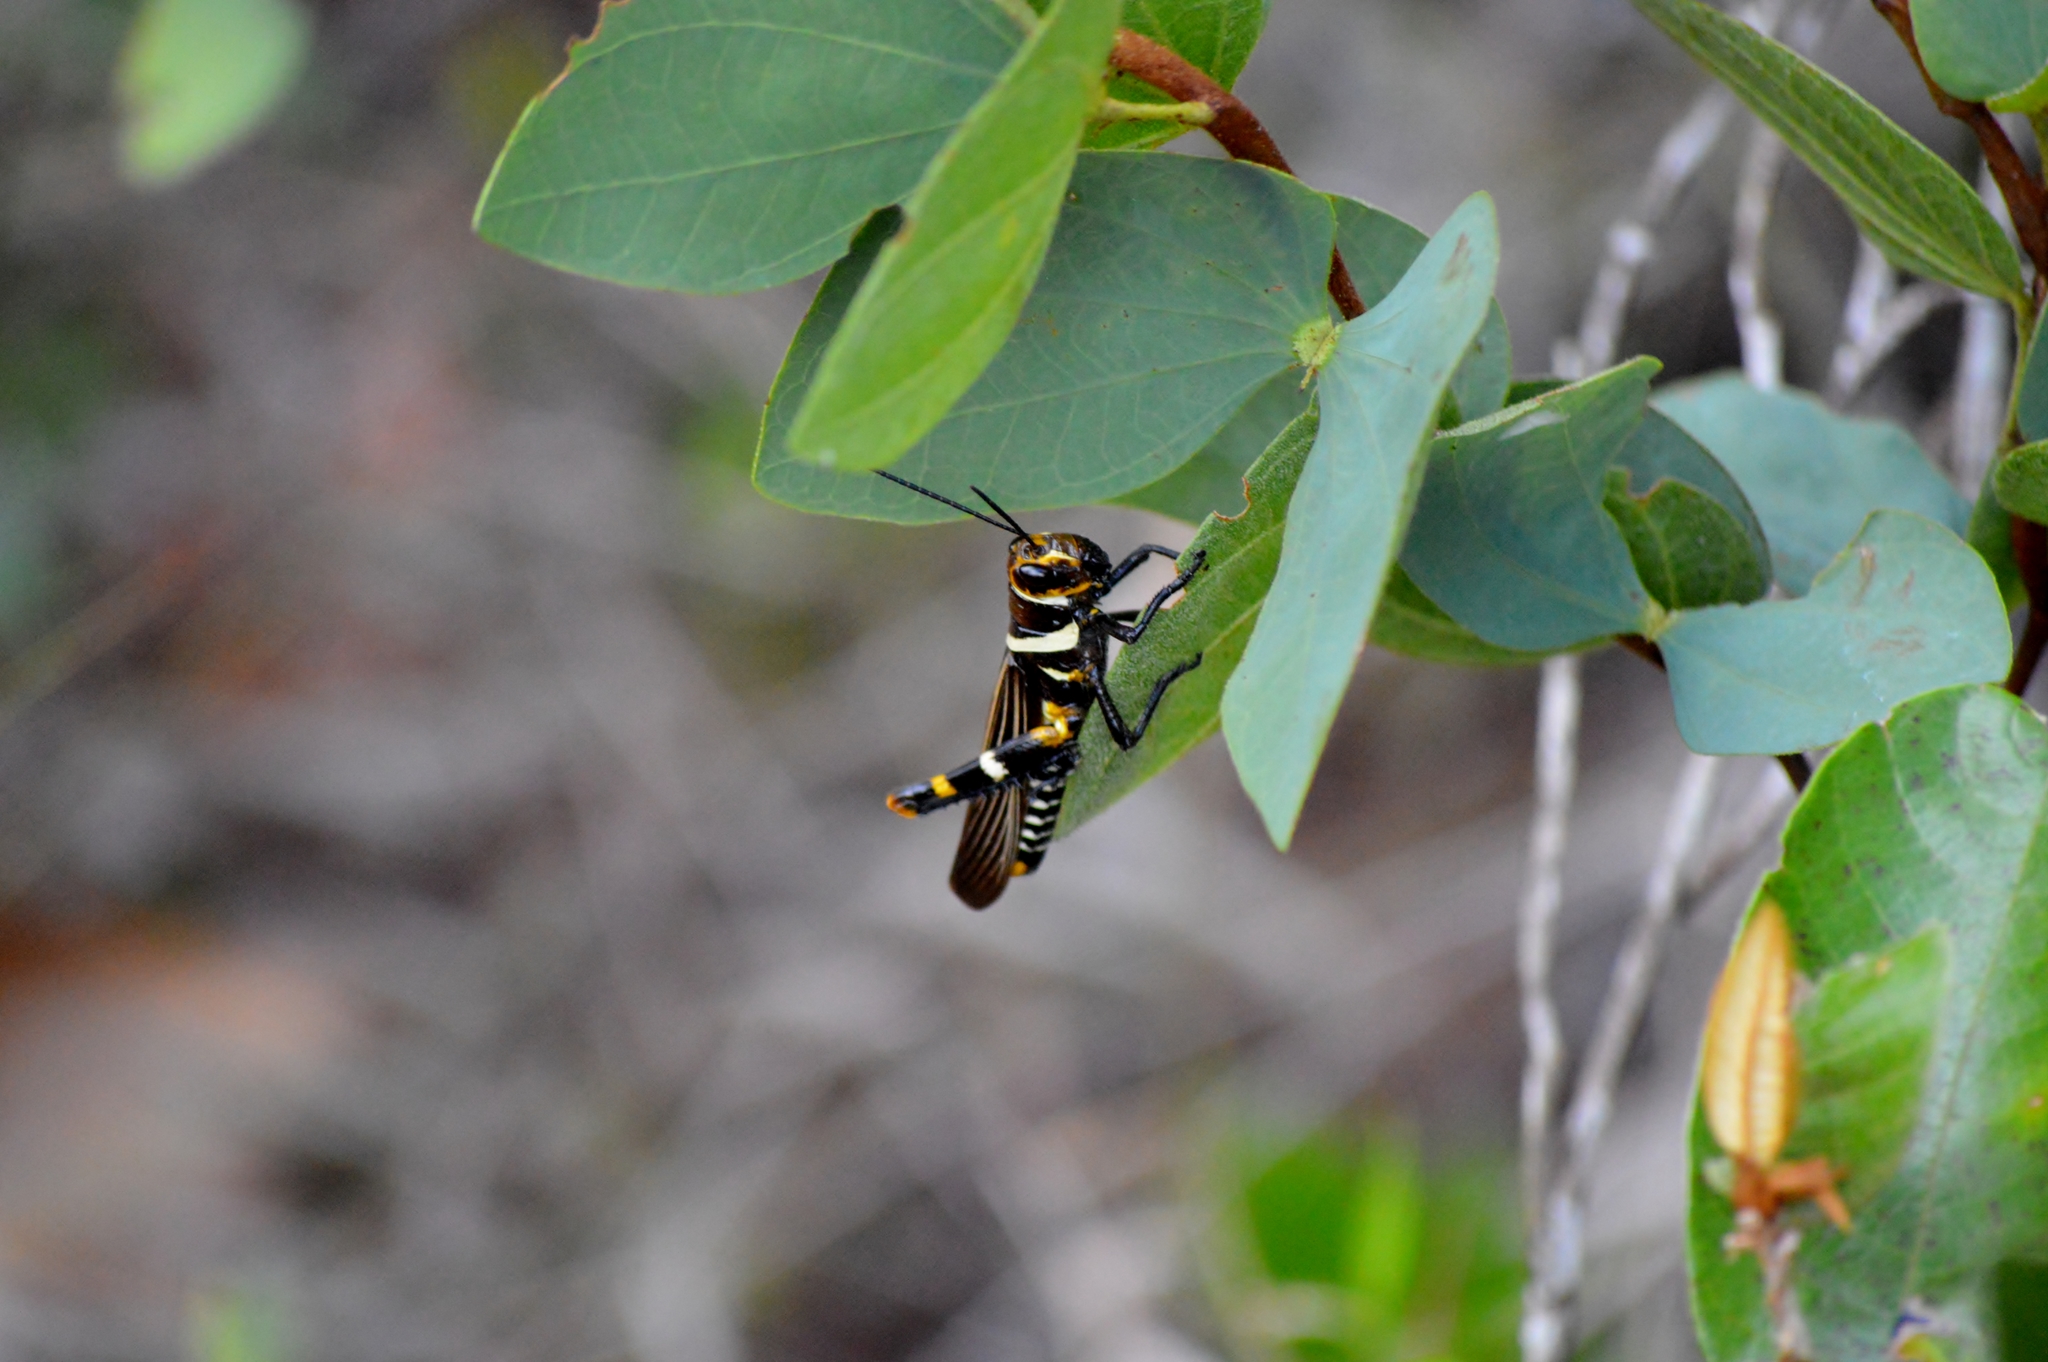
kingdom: Animalia
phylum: Arthropoda
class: Insecta
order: Orthoptera
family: Romaleidae
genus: Zoniopoda
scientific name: Zoniopoda exilipes
